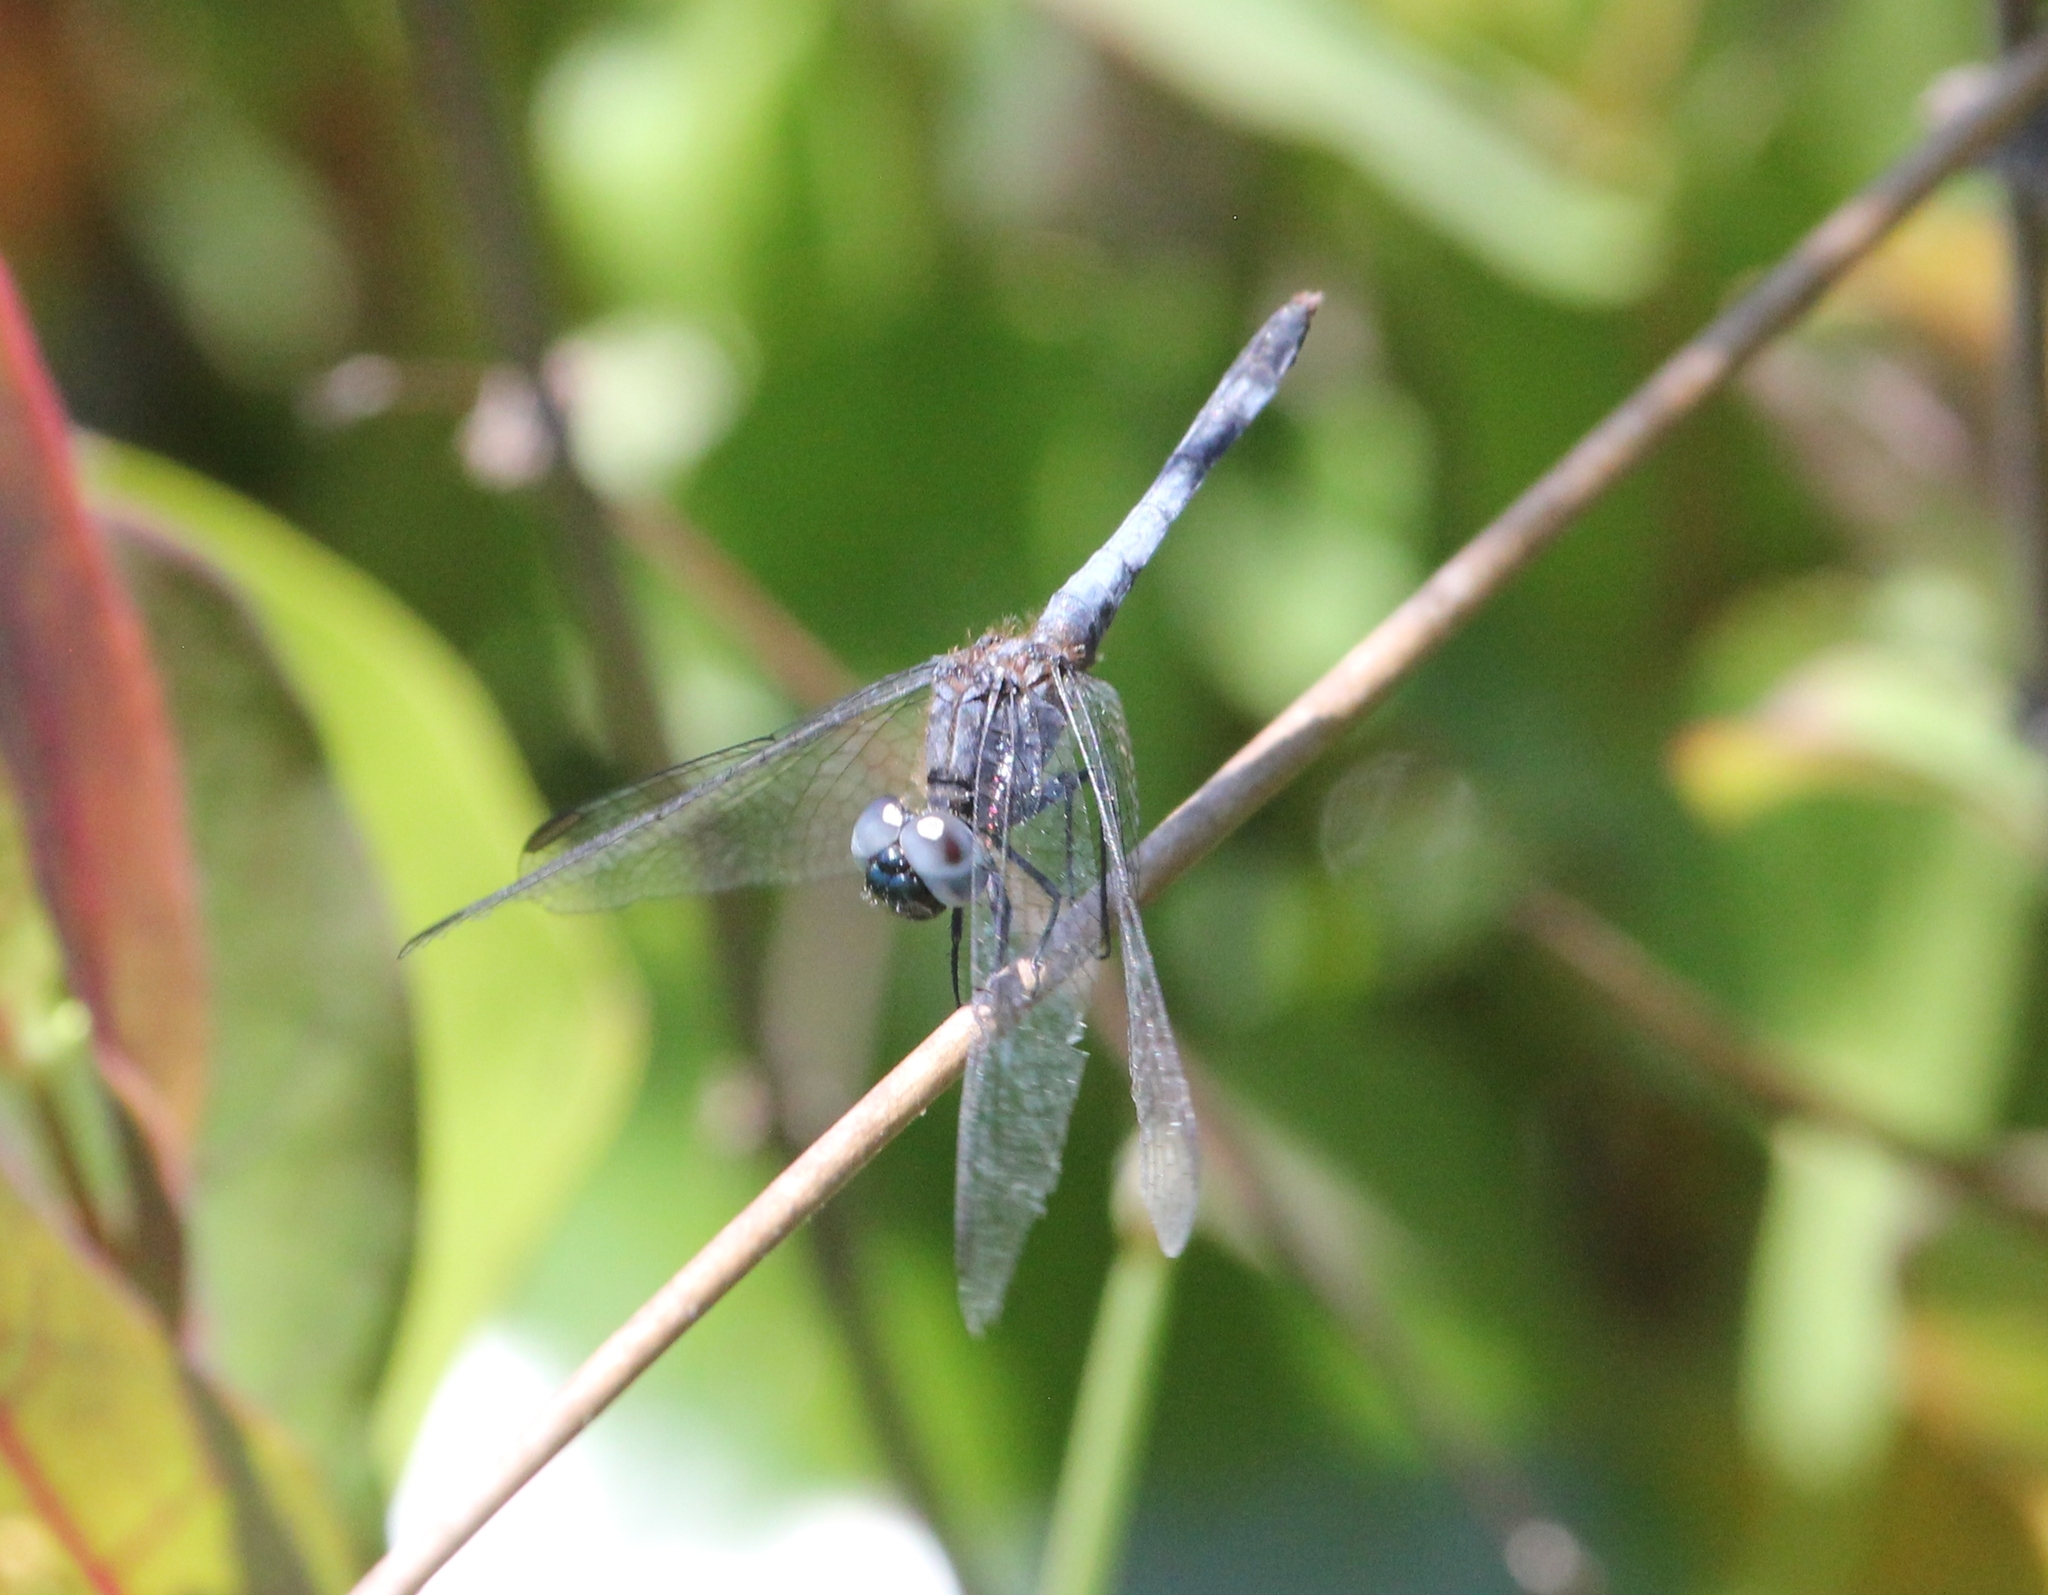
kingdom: Animalia
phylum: Arthropoda
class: Insecta
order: Odonata
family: Libellulidae
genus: Erythrodiplax
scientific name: Erythrodiplax minuscula
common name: Little blue dragonlet
